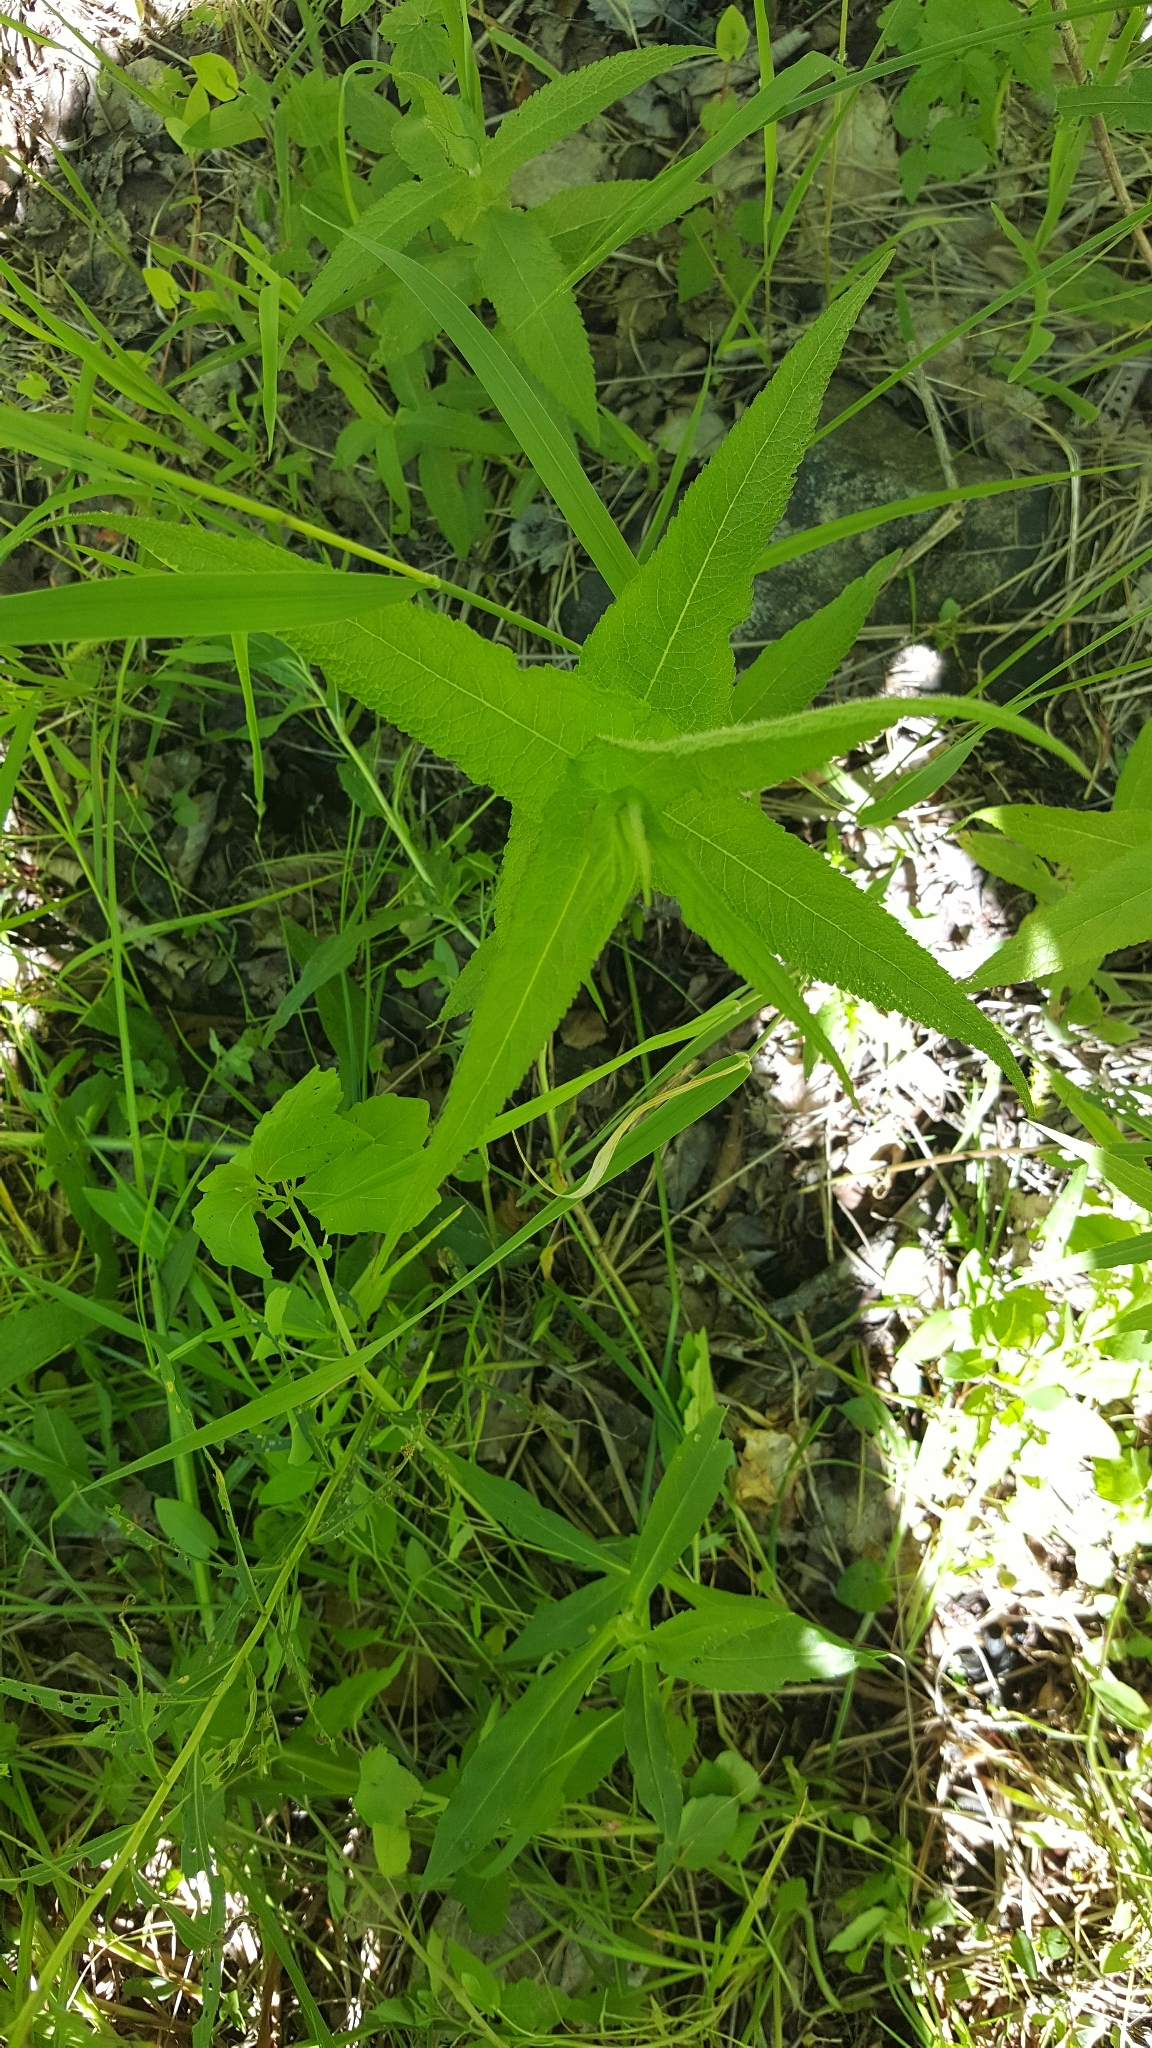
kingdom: Plantae
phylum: Tracheophyta
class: Magnoliopsida
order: Asterales
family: Asteraceae
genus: Eupatorium
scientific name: Eupatorium perfoliatum
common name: Boneset
